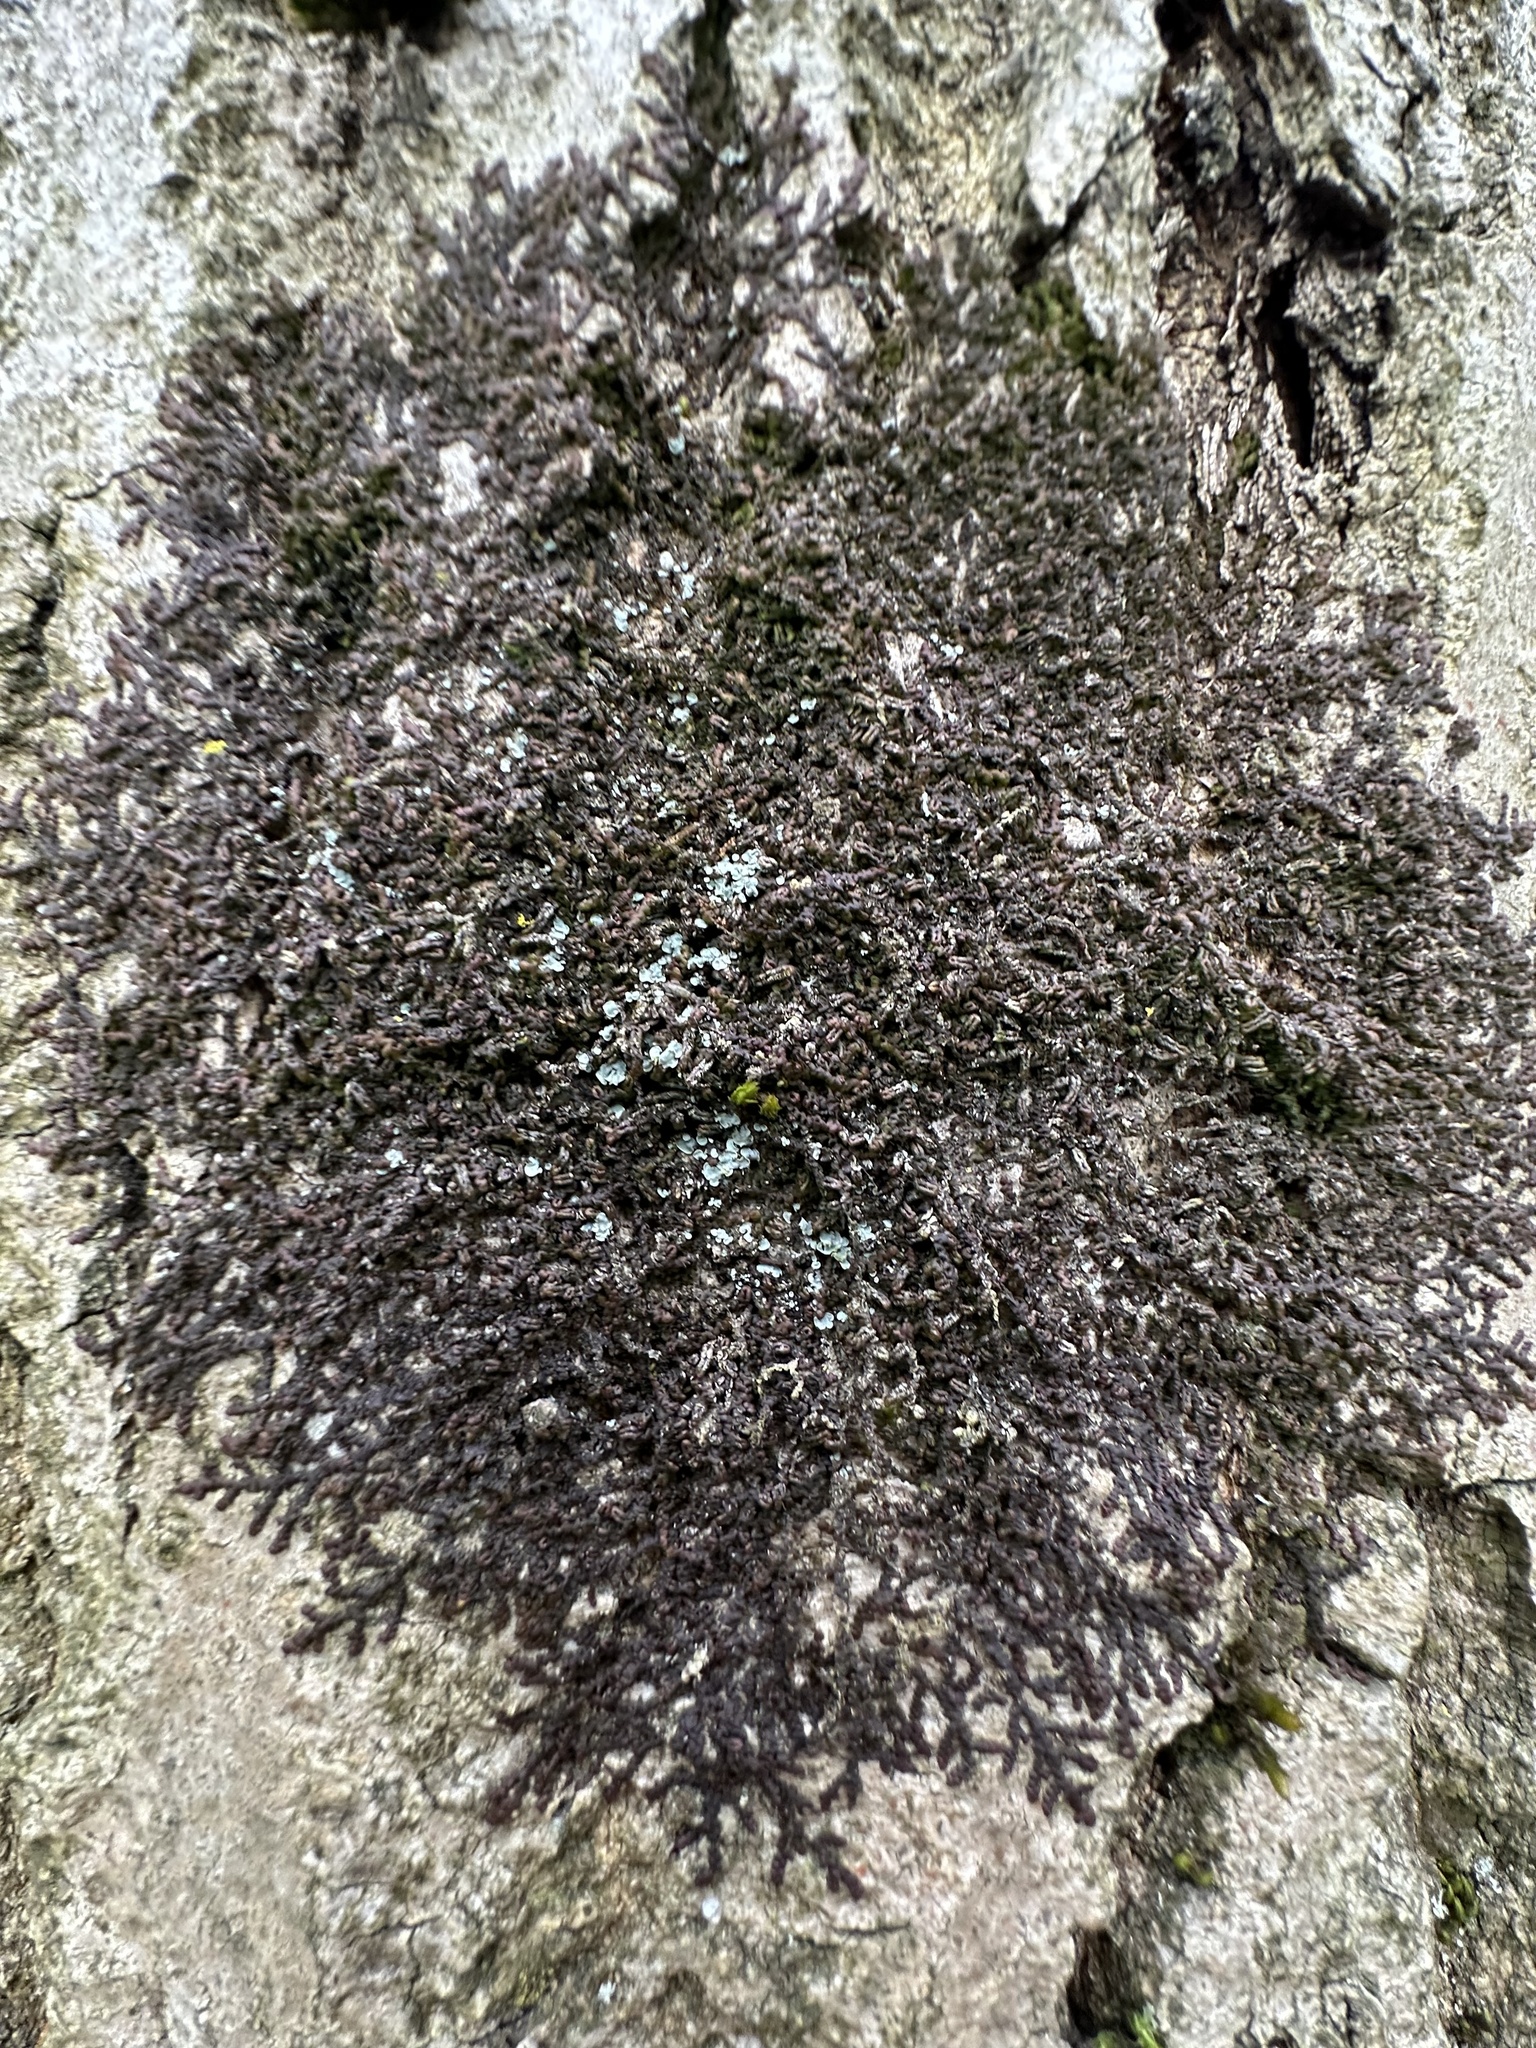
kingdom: Plantae
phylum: Marchantiophyta
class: Jungermanniopsida
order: Porellales
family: Frullaniaceae
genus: Frullania
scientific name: Frullania dilatata
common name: Dilated scalewort
